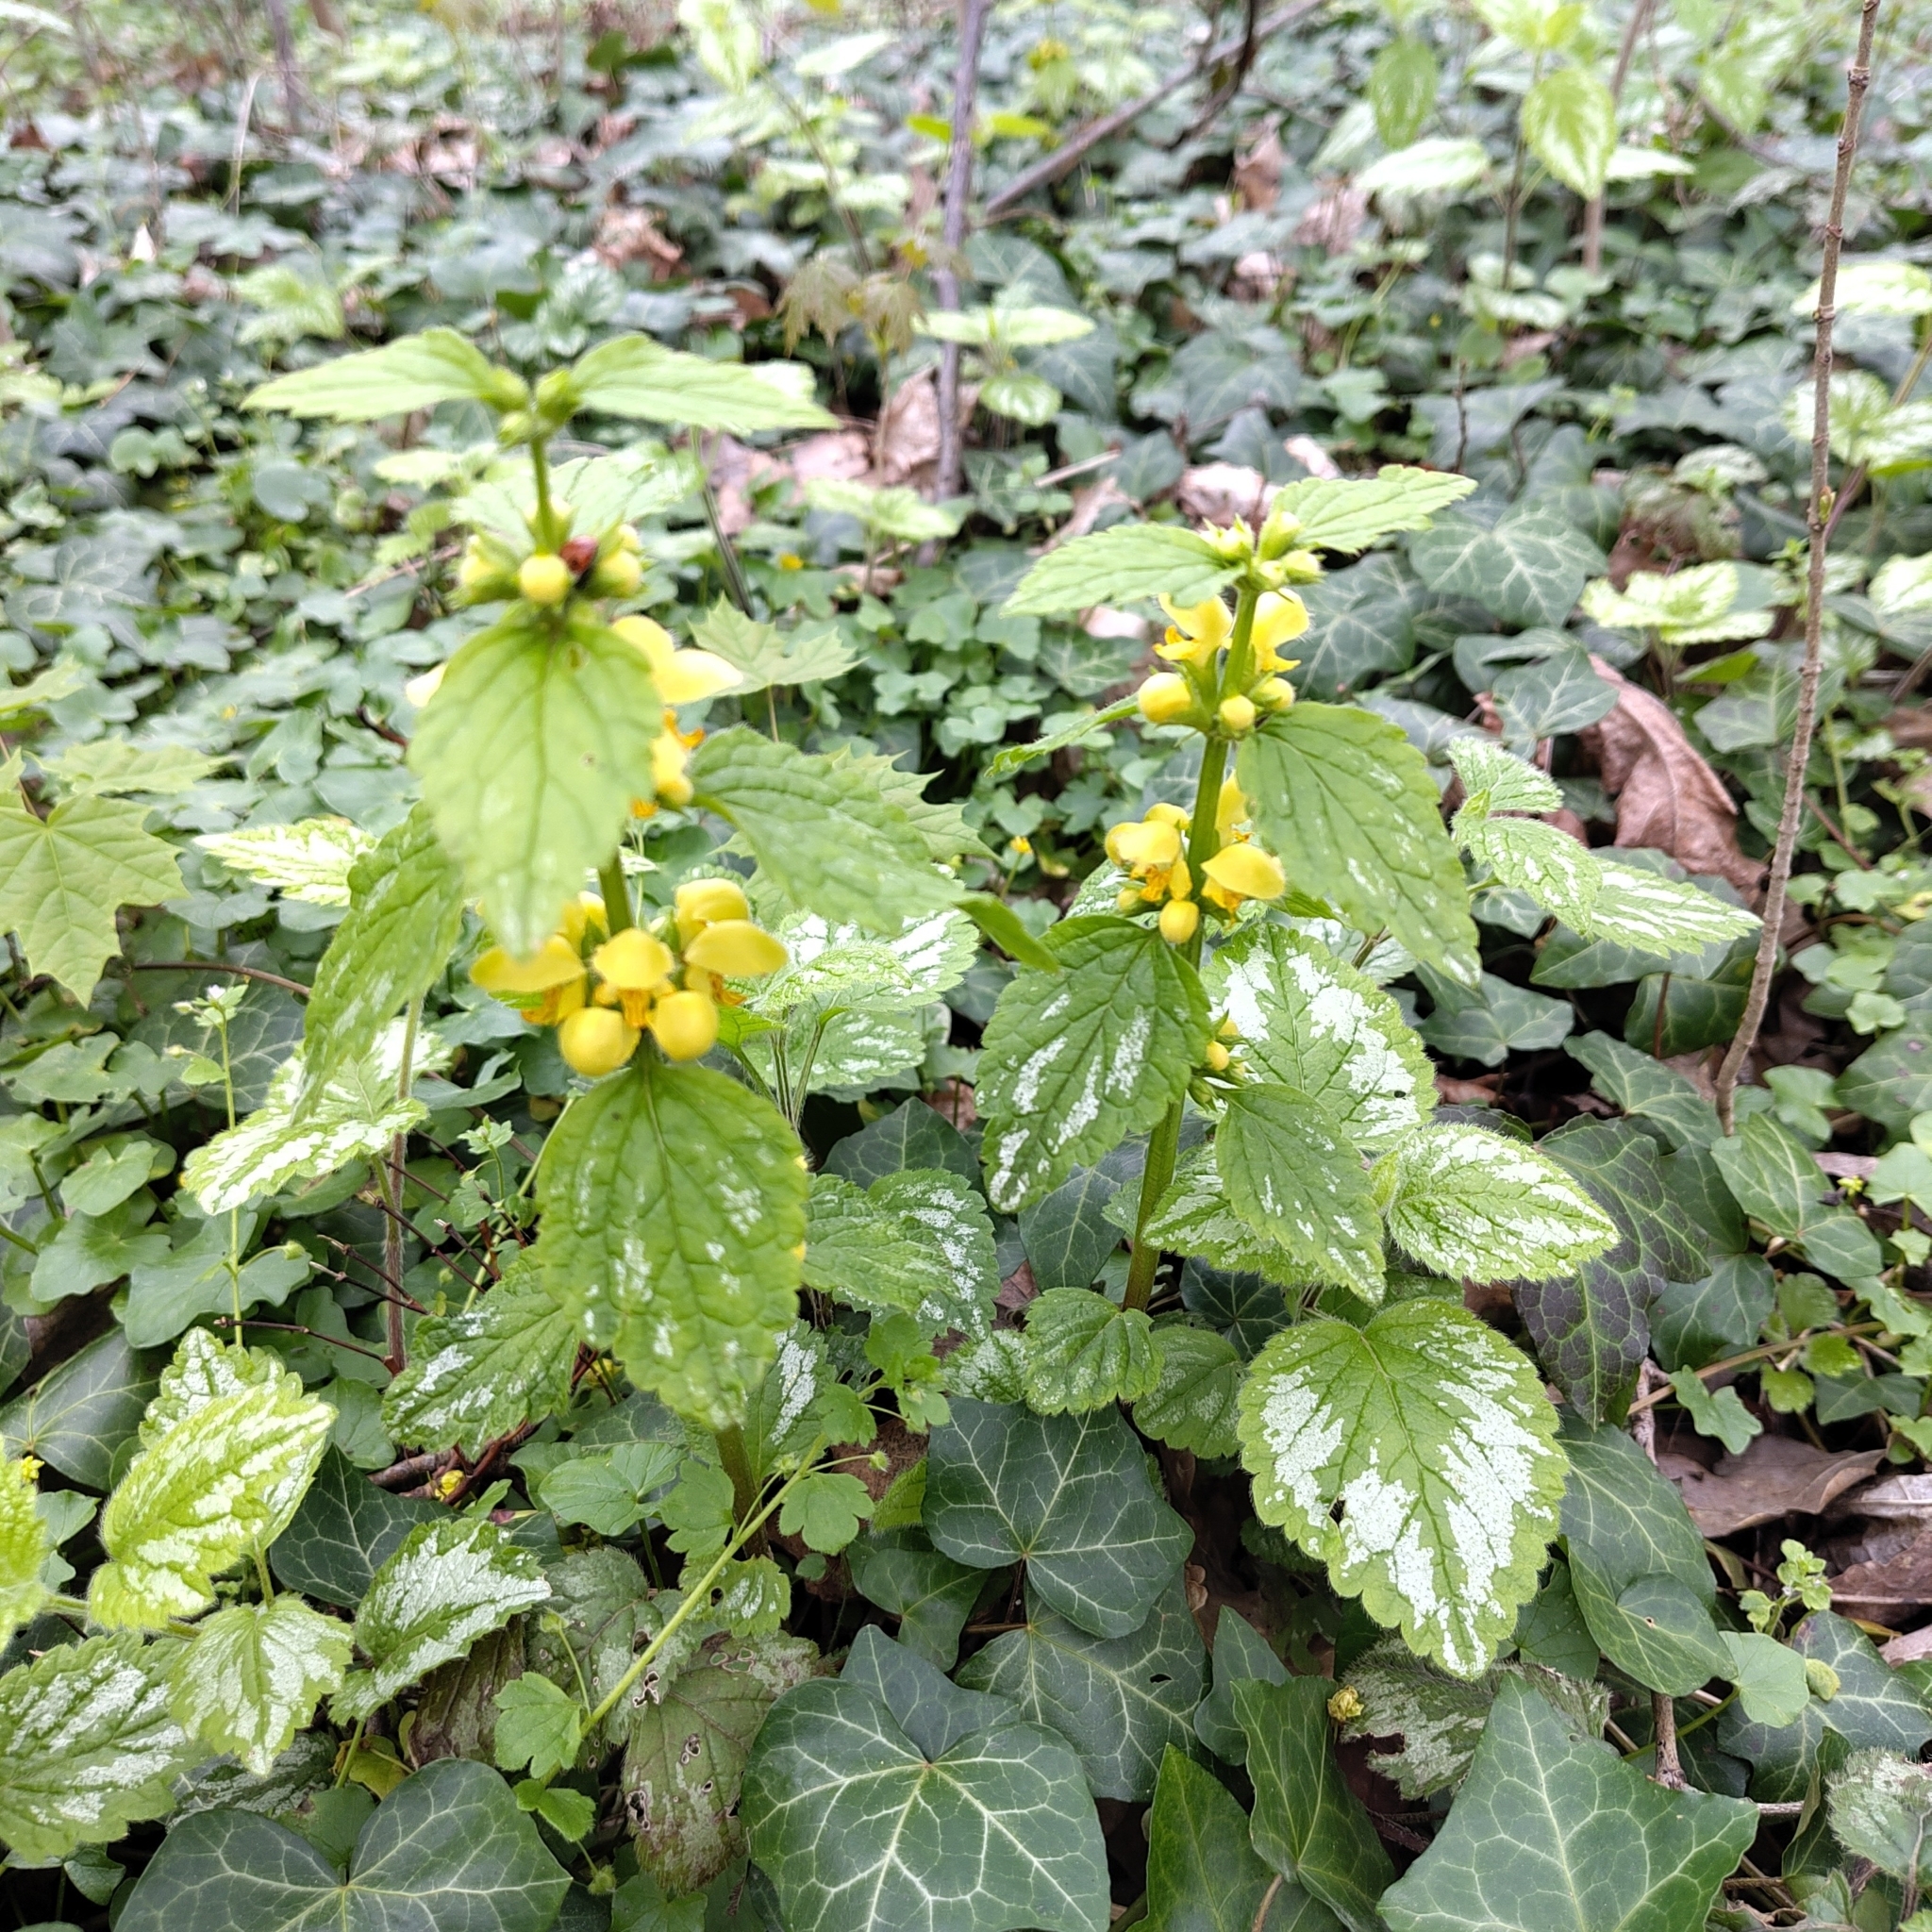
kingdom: Plantae
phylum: Tracheophyta
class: Magnoliopsida
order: Lamiales
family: Lamiaceae
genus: Lamium
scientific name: Lamium galeobdolon
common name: Yellow archangel
